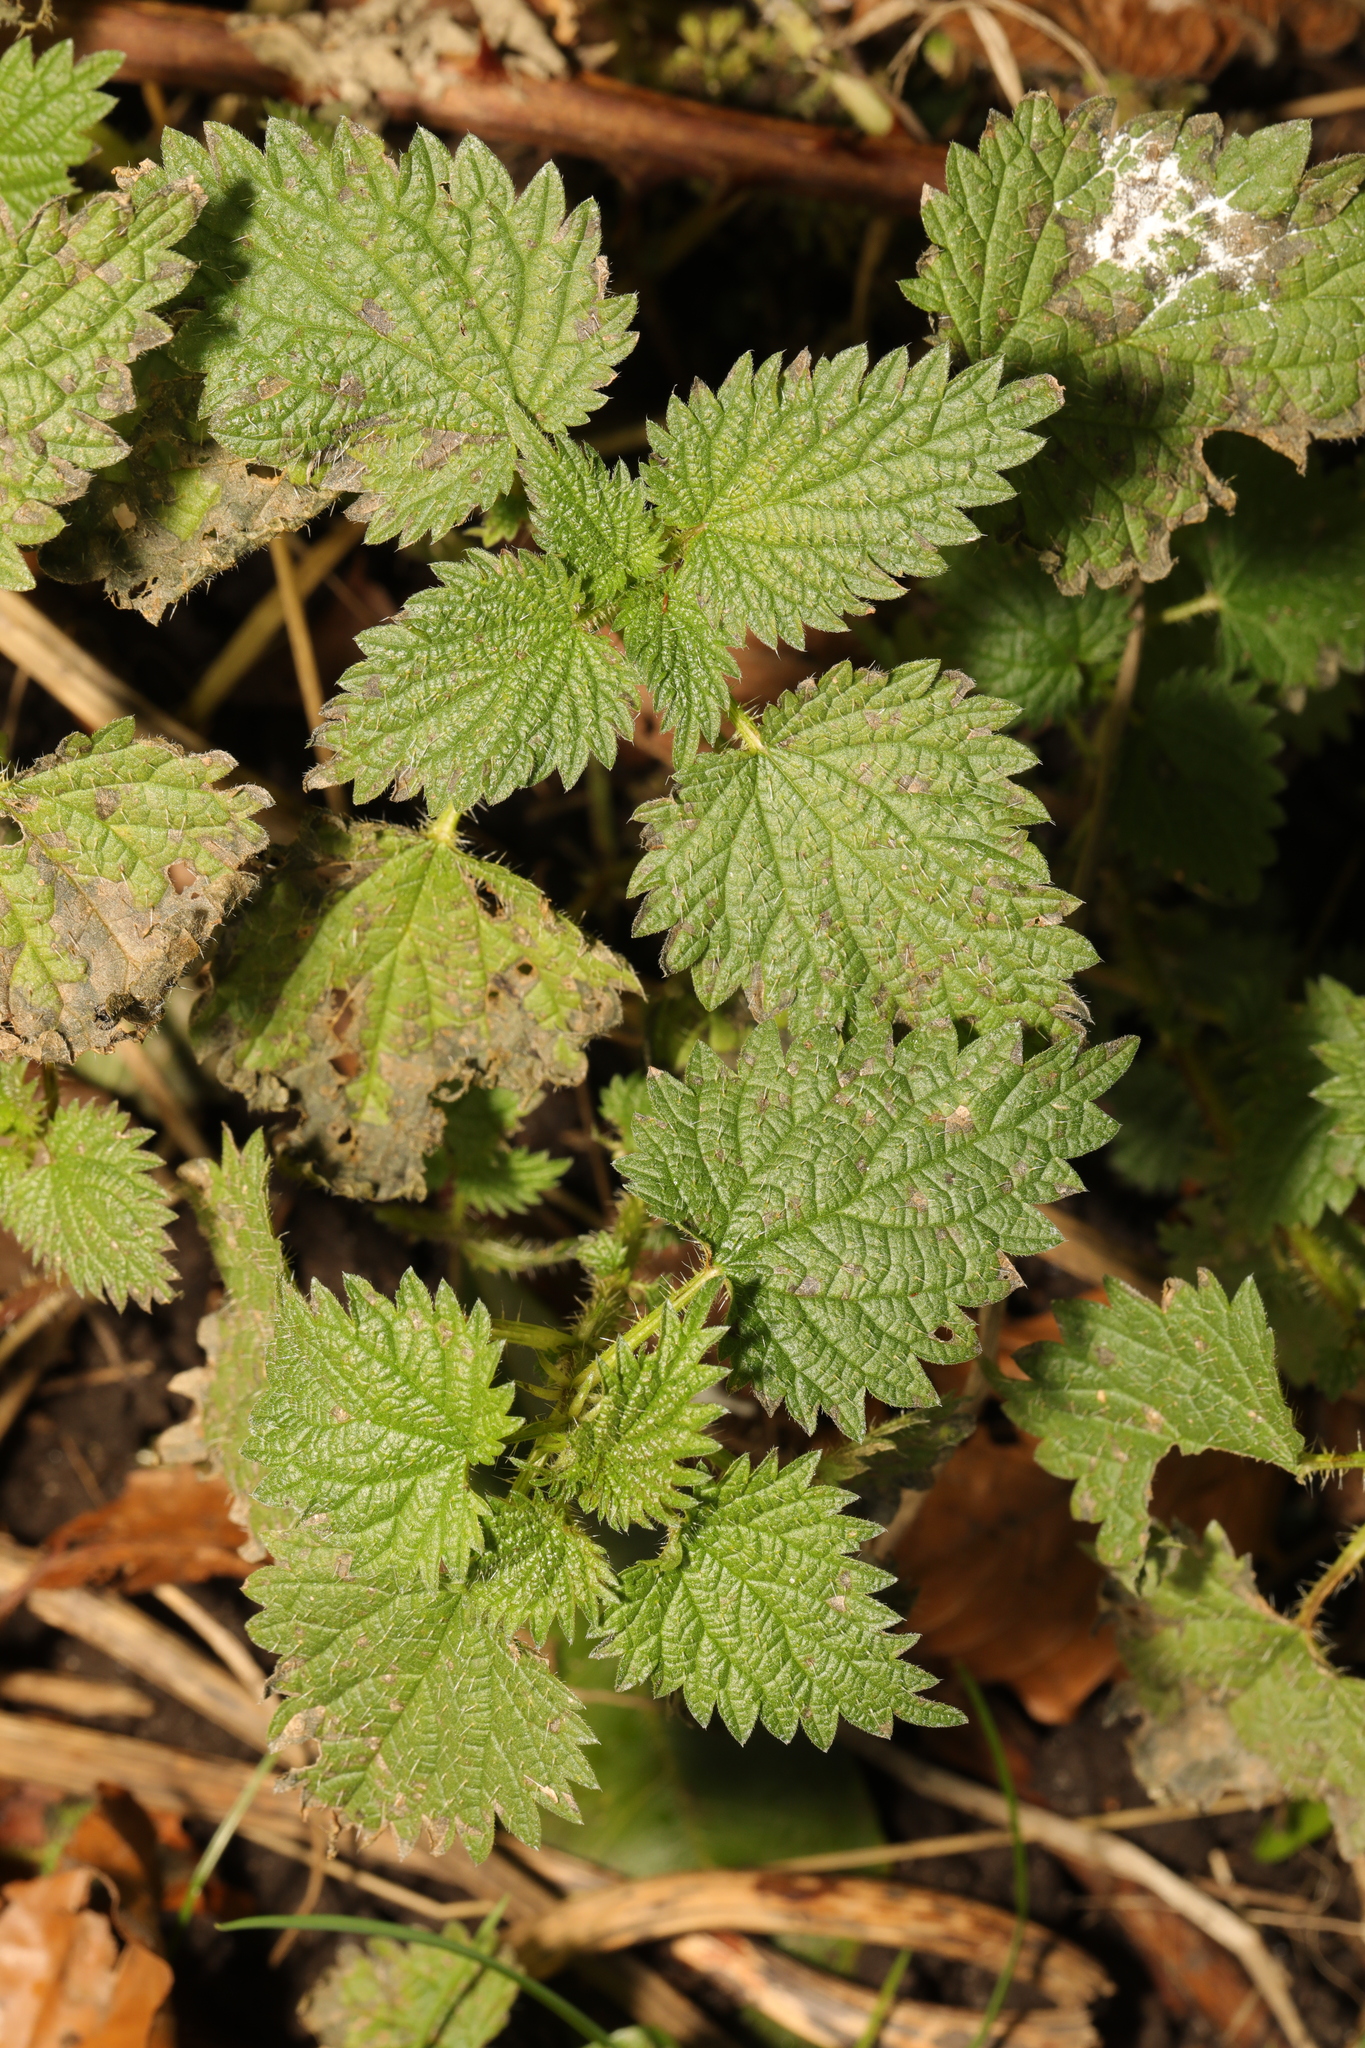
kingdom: Plantae
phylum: Tracheophyta
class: Magnoliopsida
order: Rosales
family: Urticaceae
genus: Urtica
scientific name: Urtica dioica
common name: Common nettle
